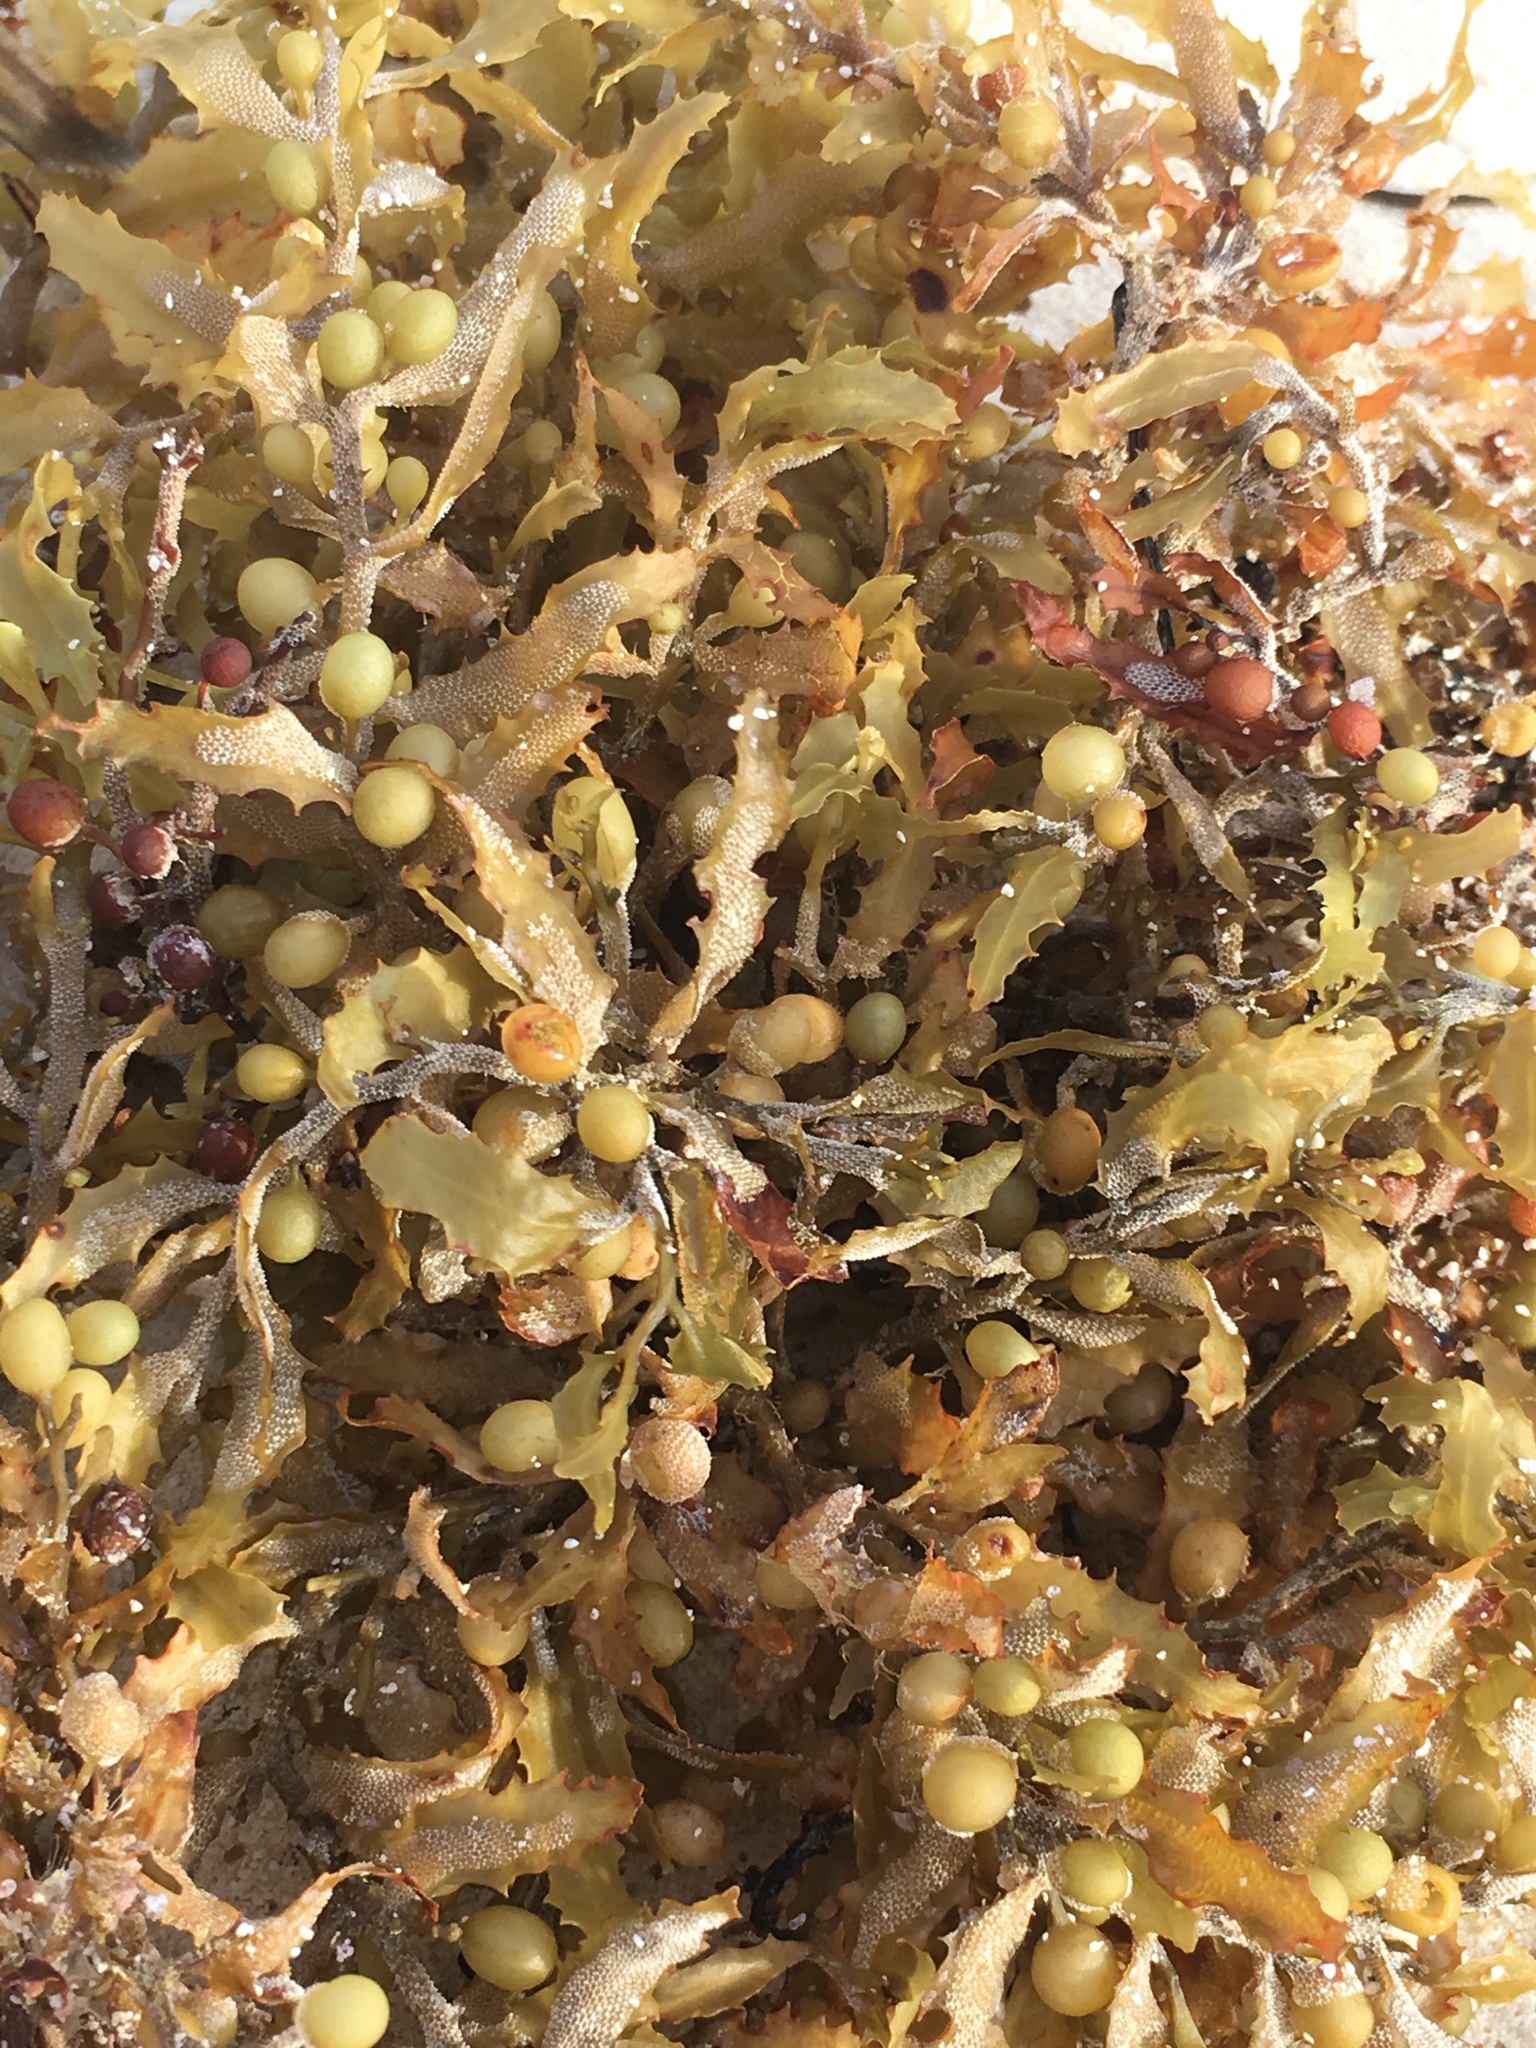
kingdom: Chromista
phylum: Ochrophyta
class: Phaeophyceae
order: Fucales
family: Sargassaceae
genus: Sargassum
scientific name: Sargassum fluitans
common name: Sargassum seaweed
